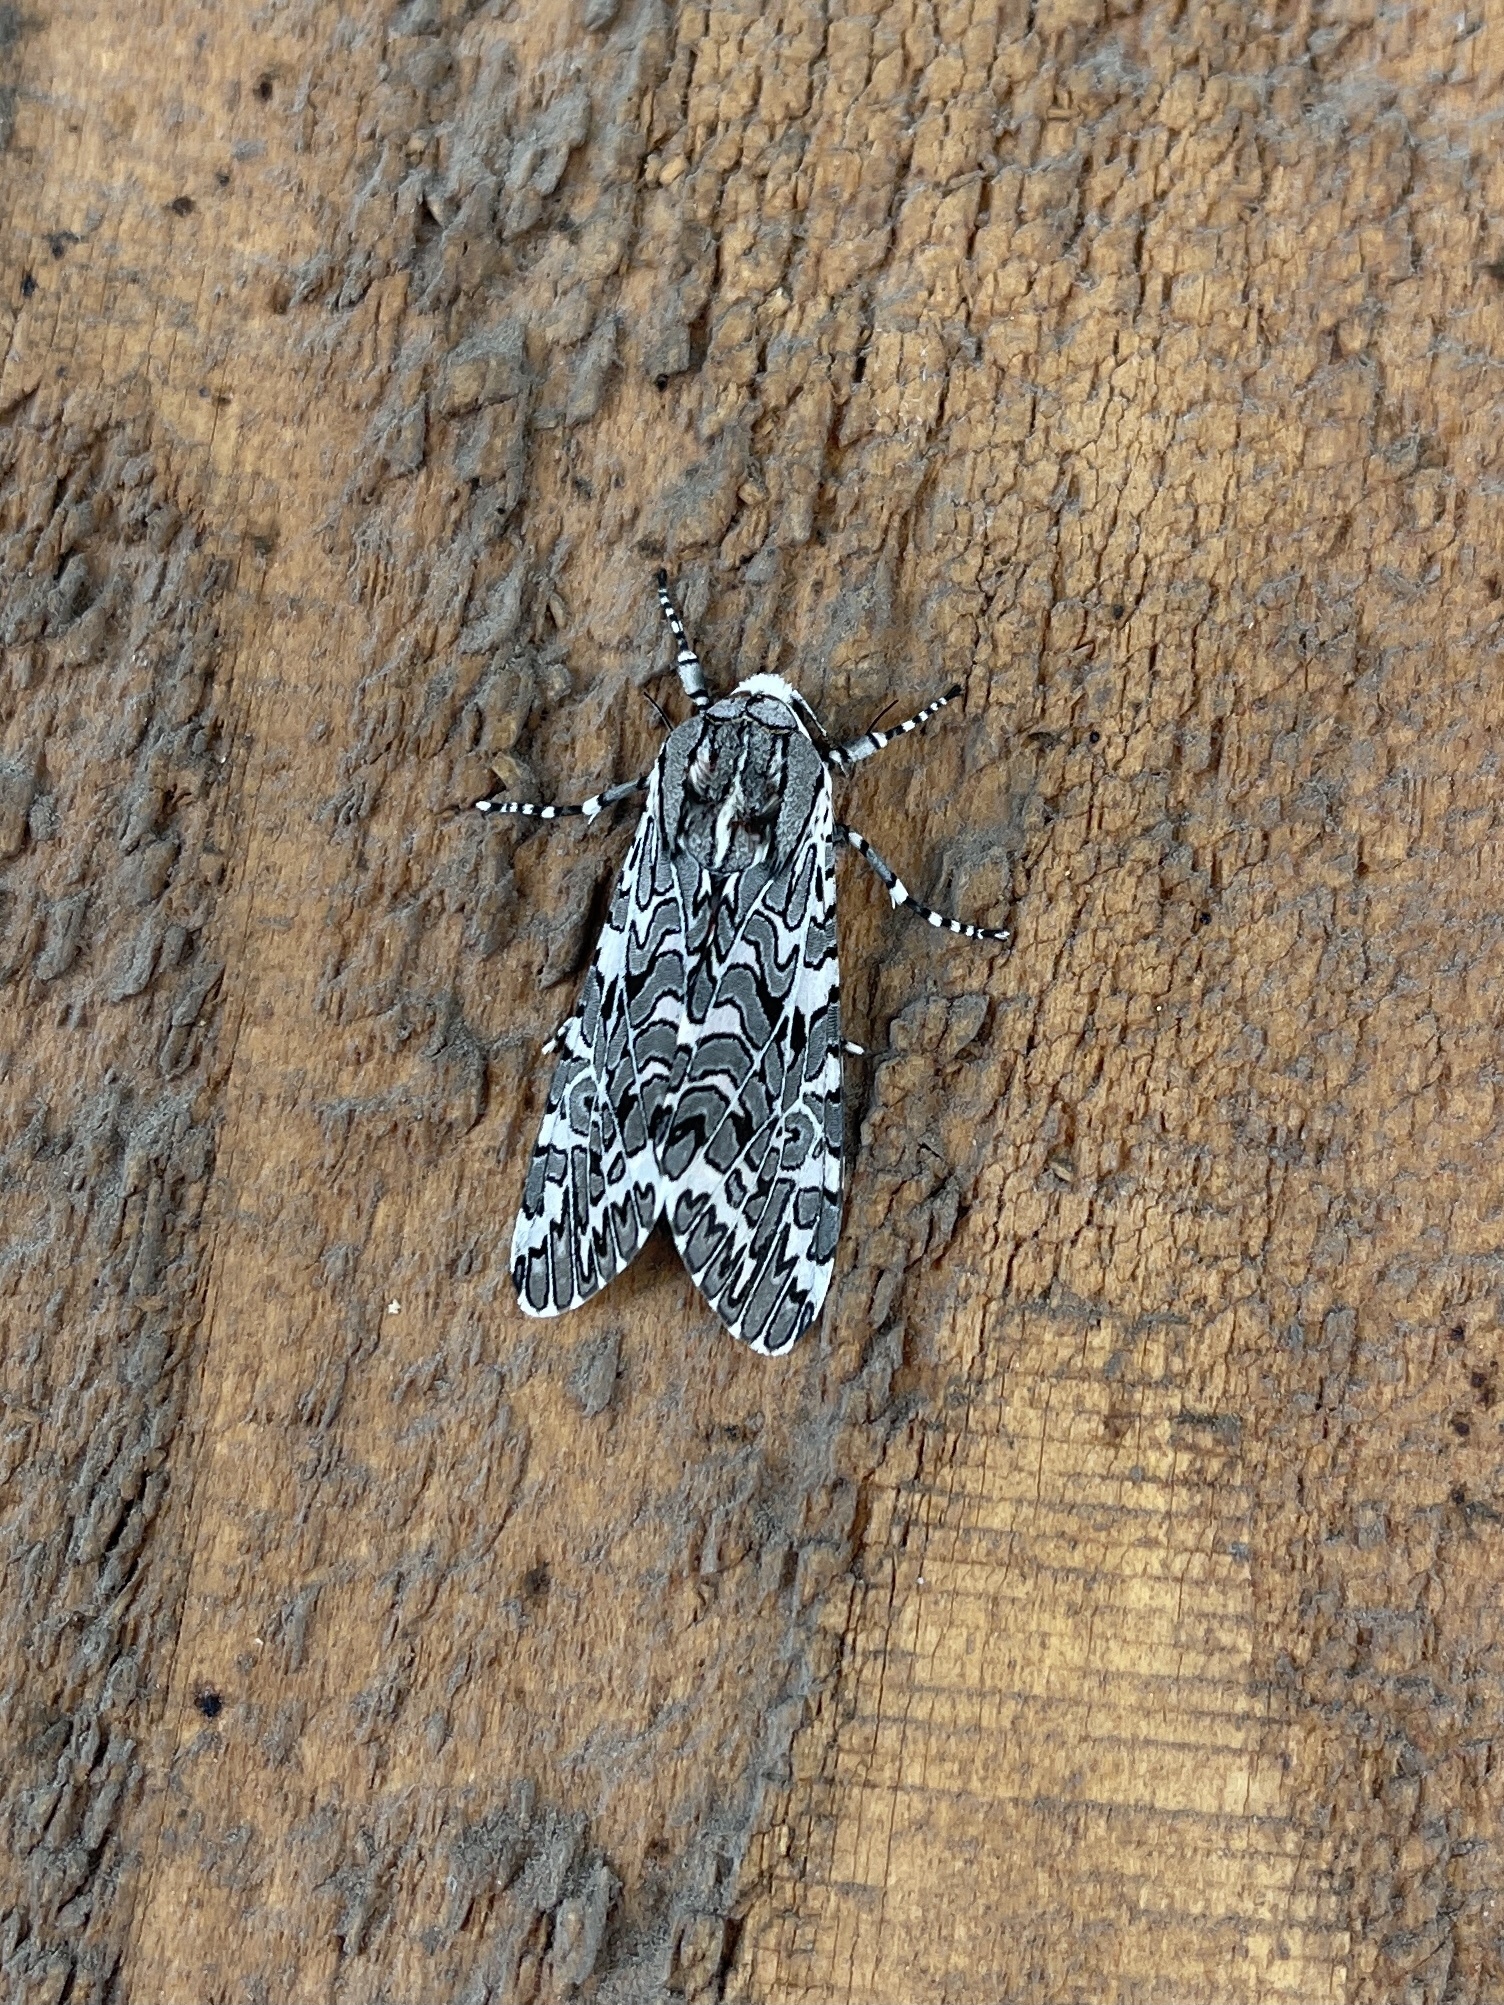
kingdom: Animalia
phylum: Arthropoda
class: Insecta
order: Lepidoptera
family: Erebidae
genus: Arachnis
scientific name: Arachnis picta
